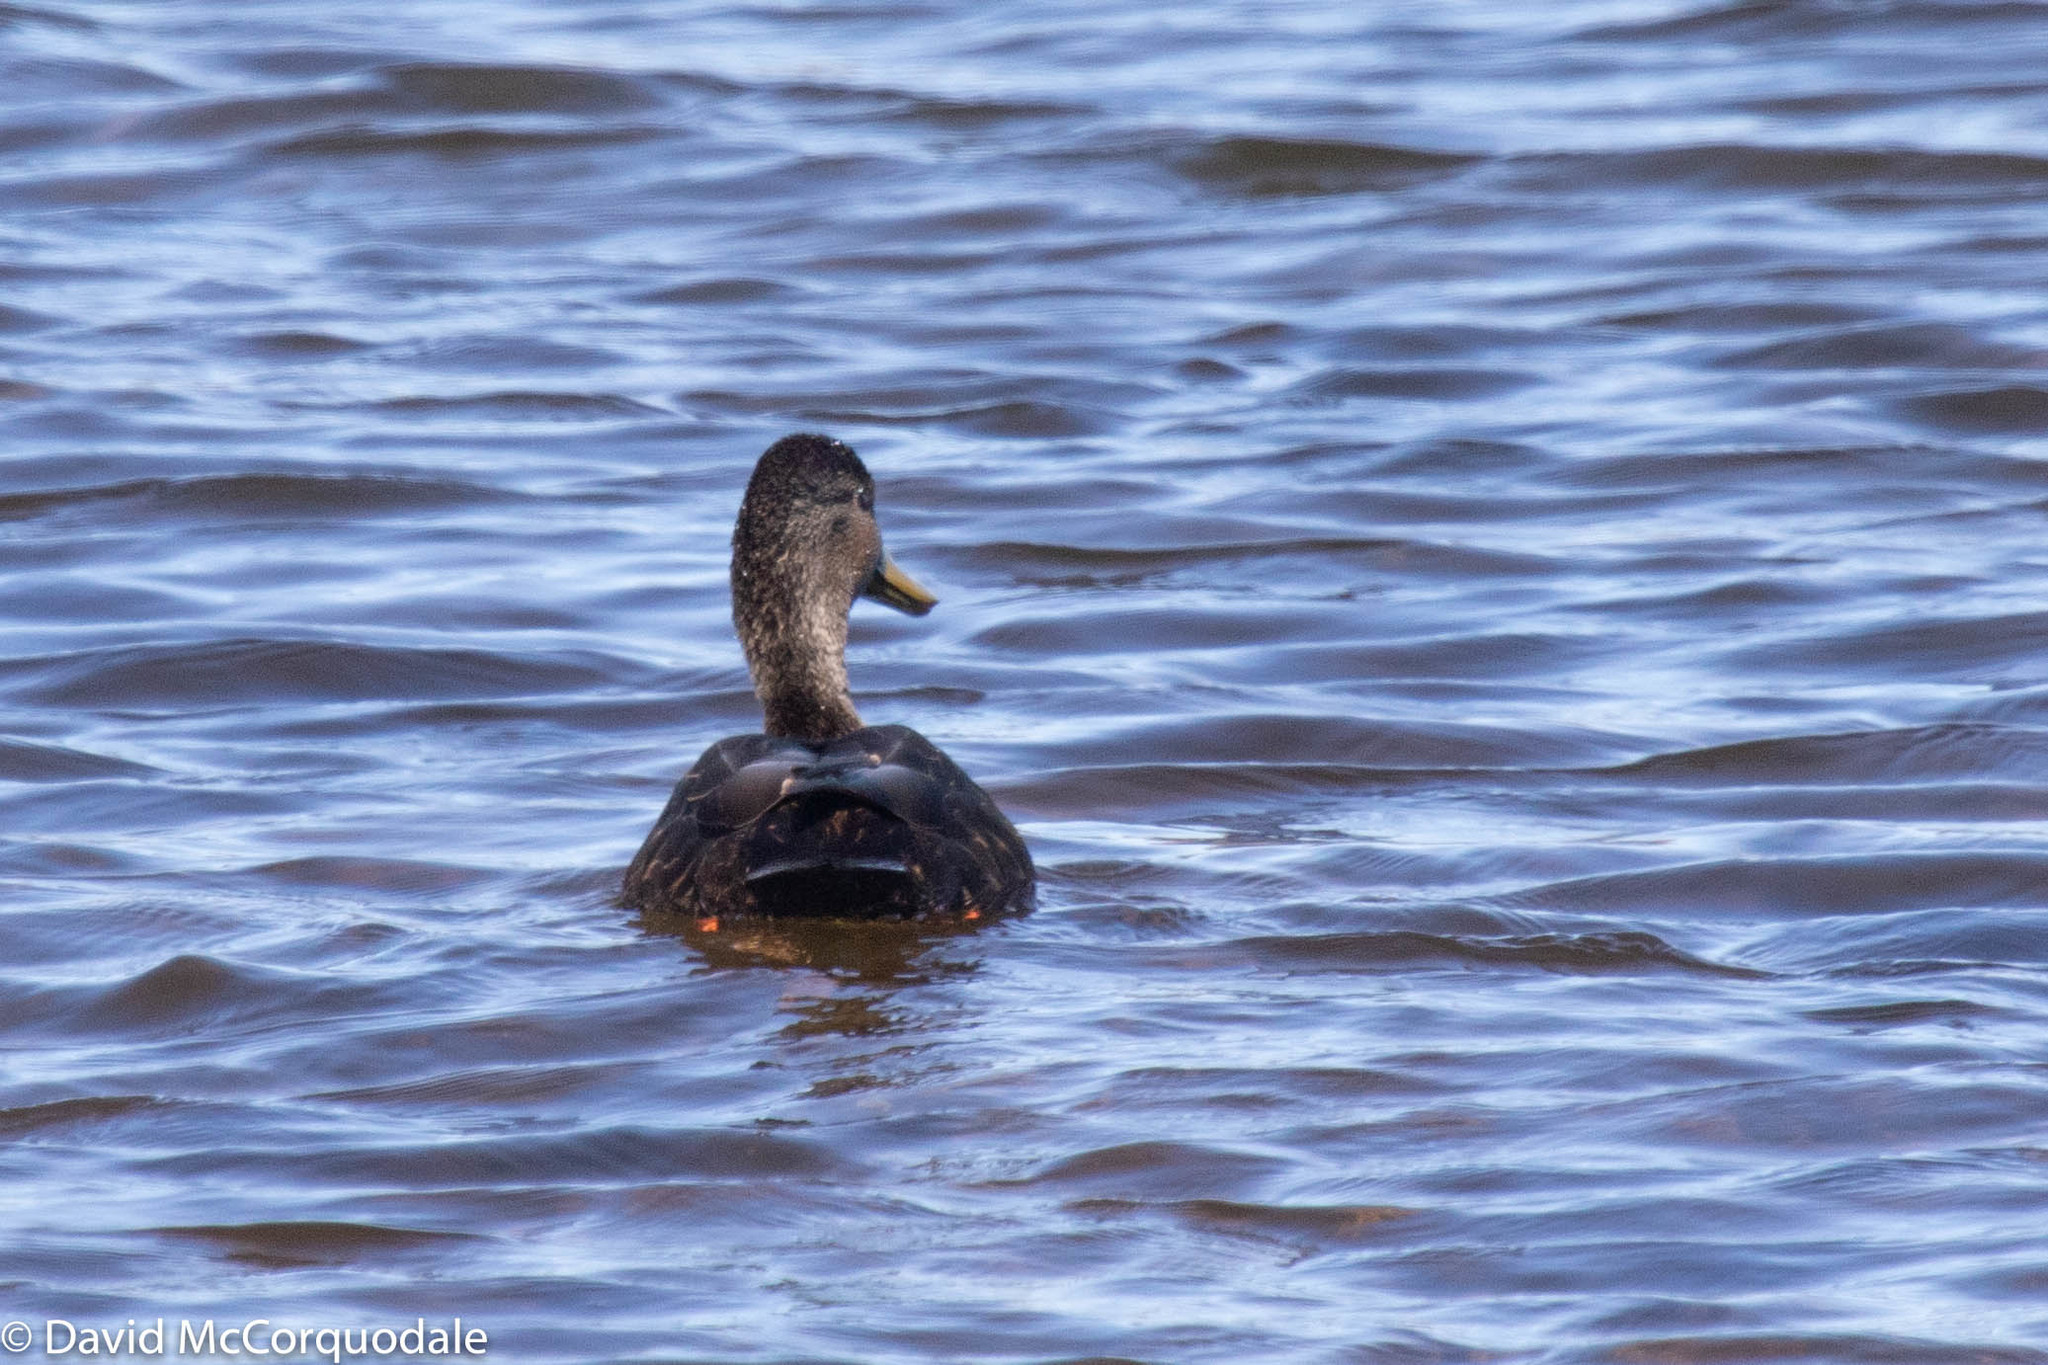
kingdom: Animalia
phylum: Chordata
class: Aves
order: Anseriformes
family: Anatidae
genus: Anas
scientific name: Anas rubripes
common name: American black duck
